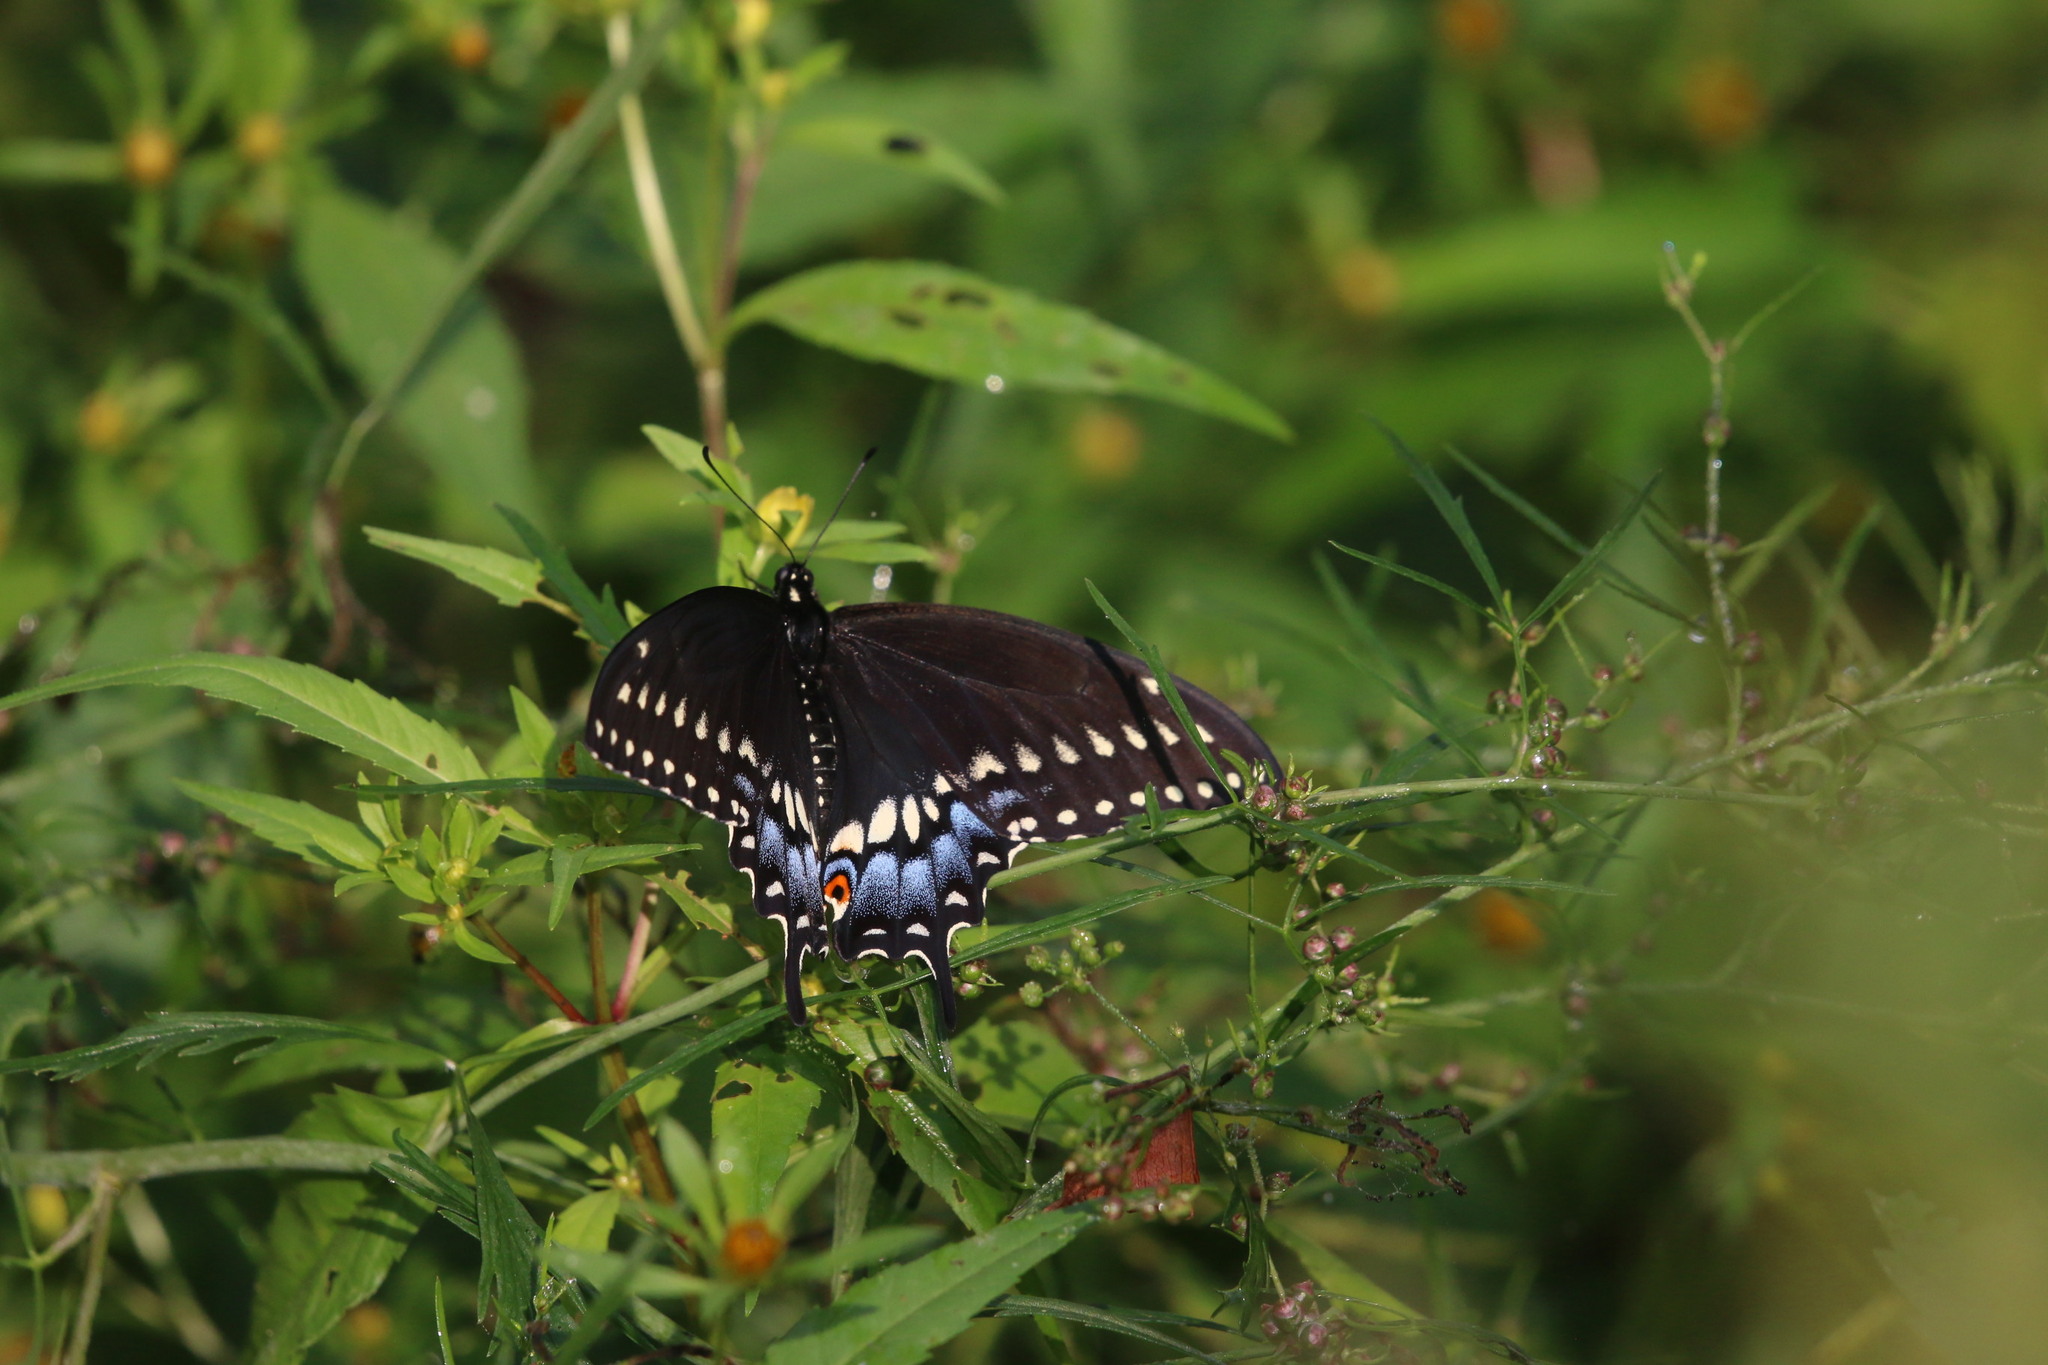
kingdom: Animalia
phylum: Arthropoda
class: Insecta
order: Lepidoptera
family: Papilionidae
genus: Papilio
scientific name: Papilio polyxenes
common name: Black swallowtail
